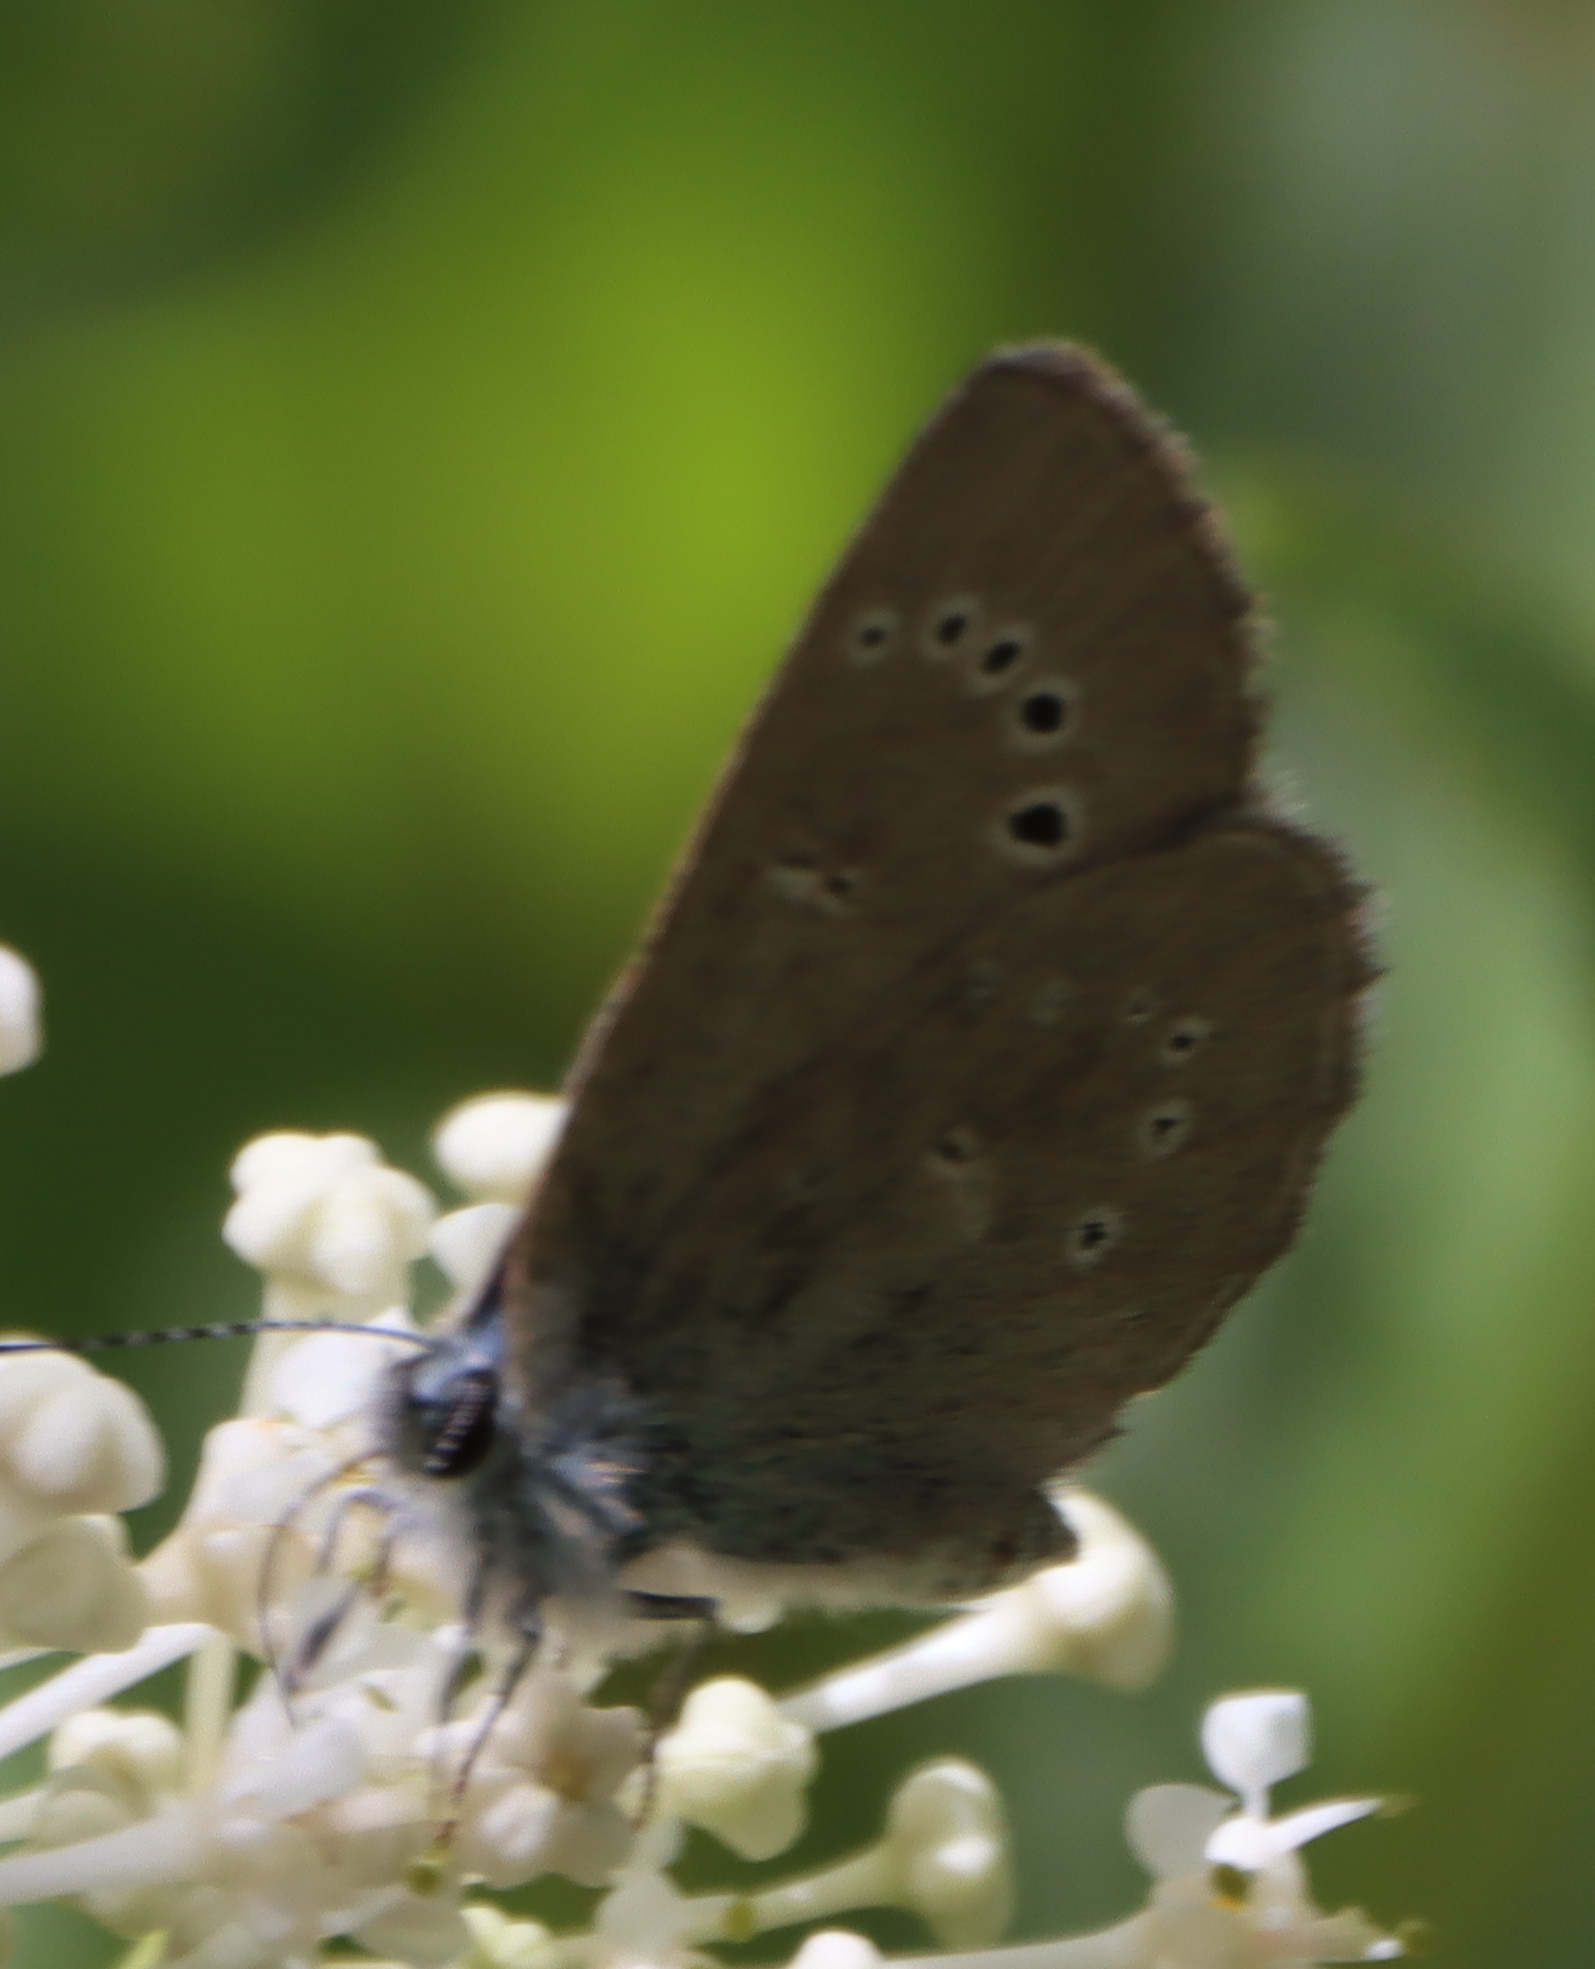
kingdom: Animalia
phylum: Arthropoda
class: Insecta
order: Lepidoptera
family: Lycaenidae
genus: Glaucopsyche
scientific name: Glaucopsyche lygdamus
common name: Silvery blue
